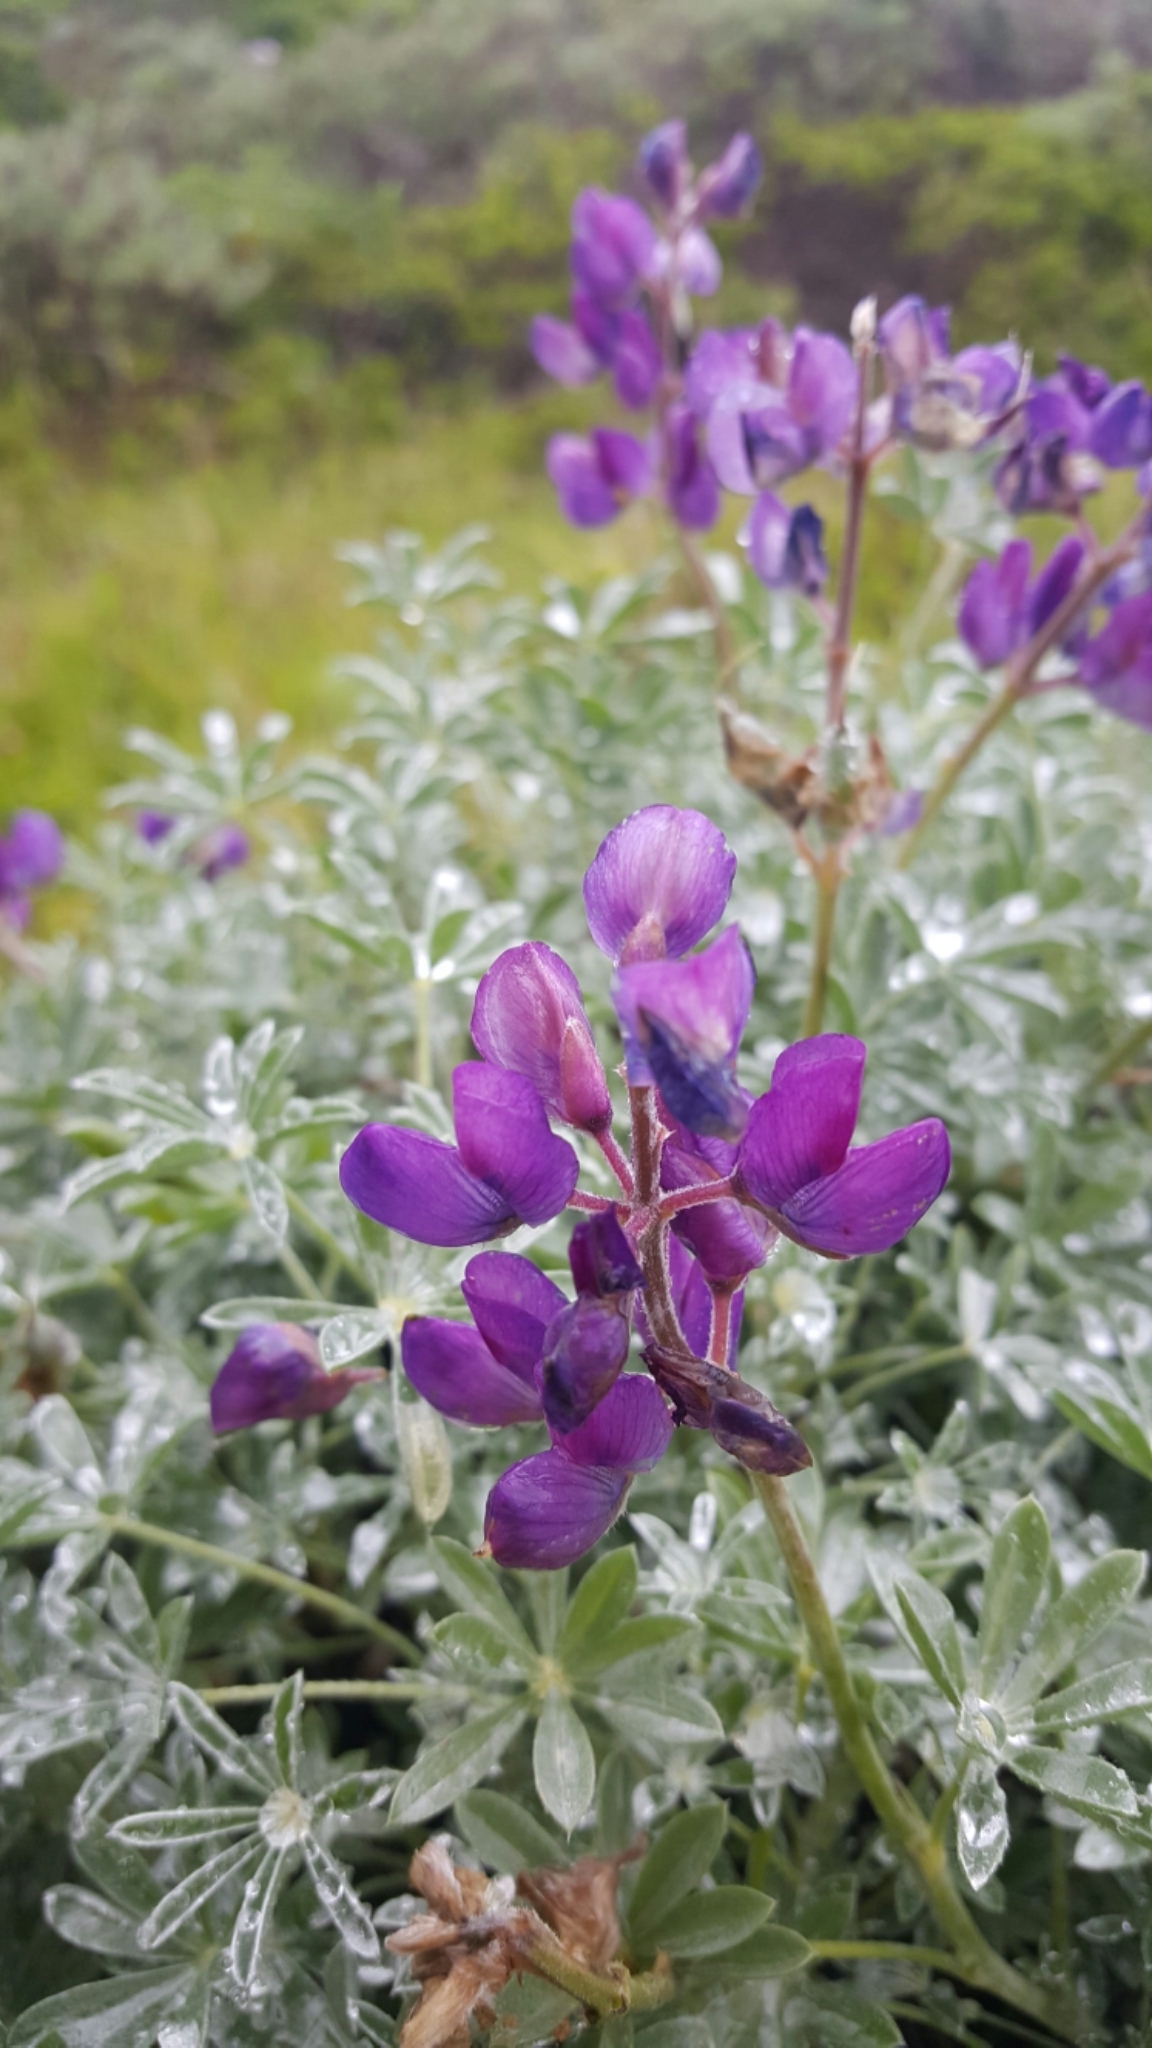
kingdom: Plantae
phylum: Tracheophyta
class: Magnoliopsida
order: Fabales
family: Fabaceae
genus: Lupinus
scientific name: Lupinus albifrons
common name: Foothill lupine
